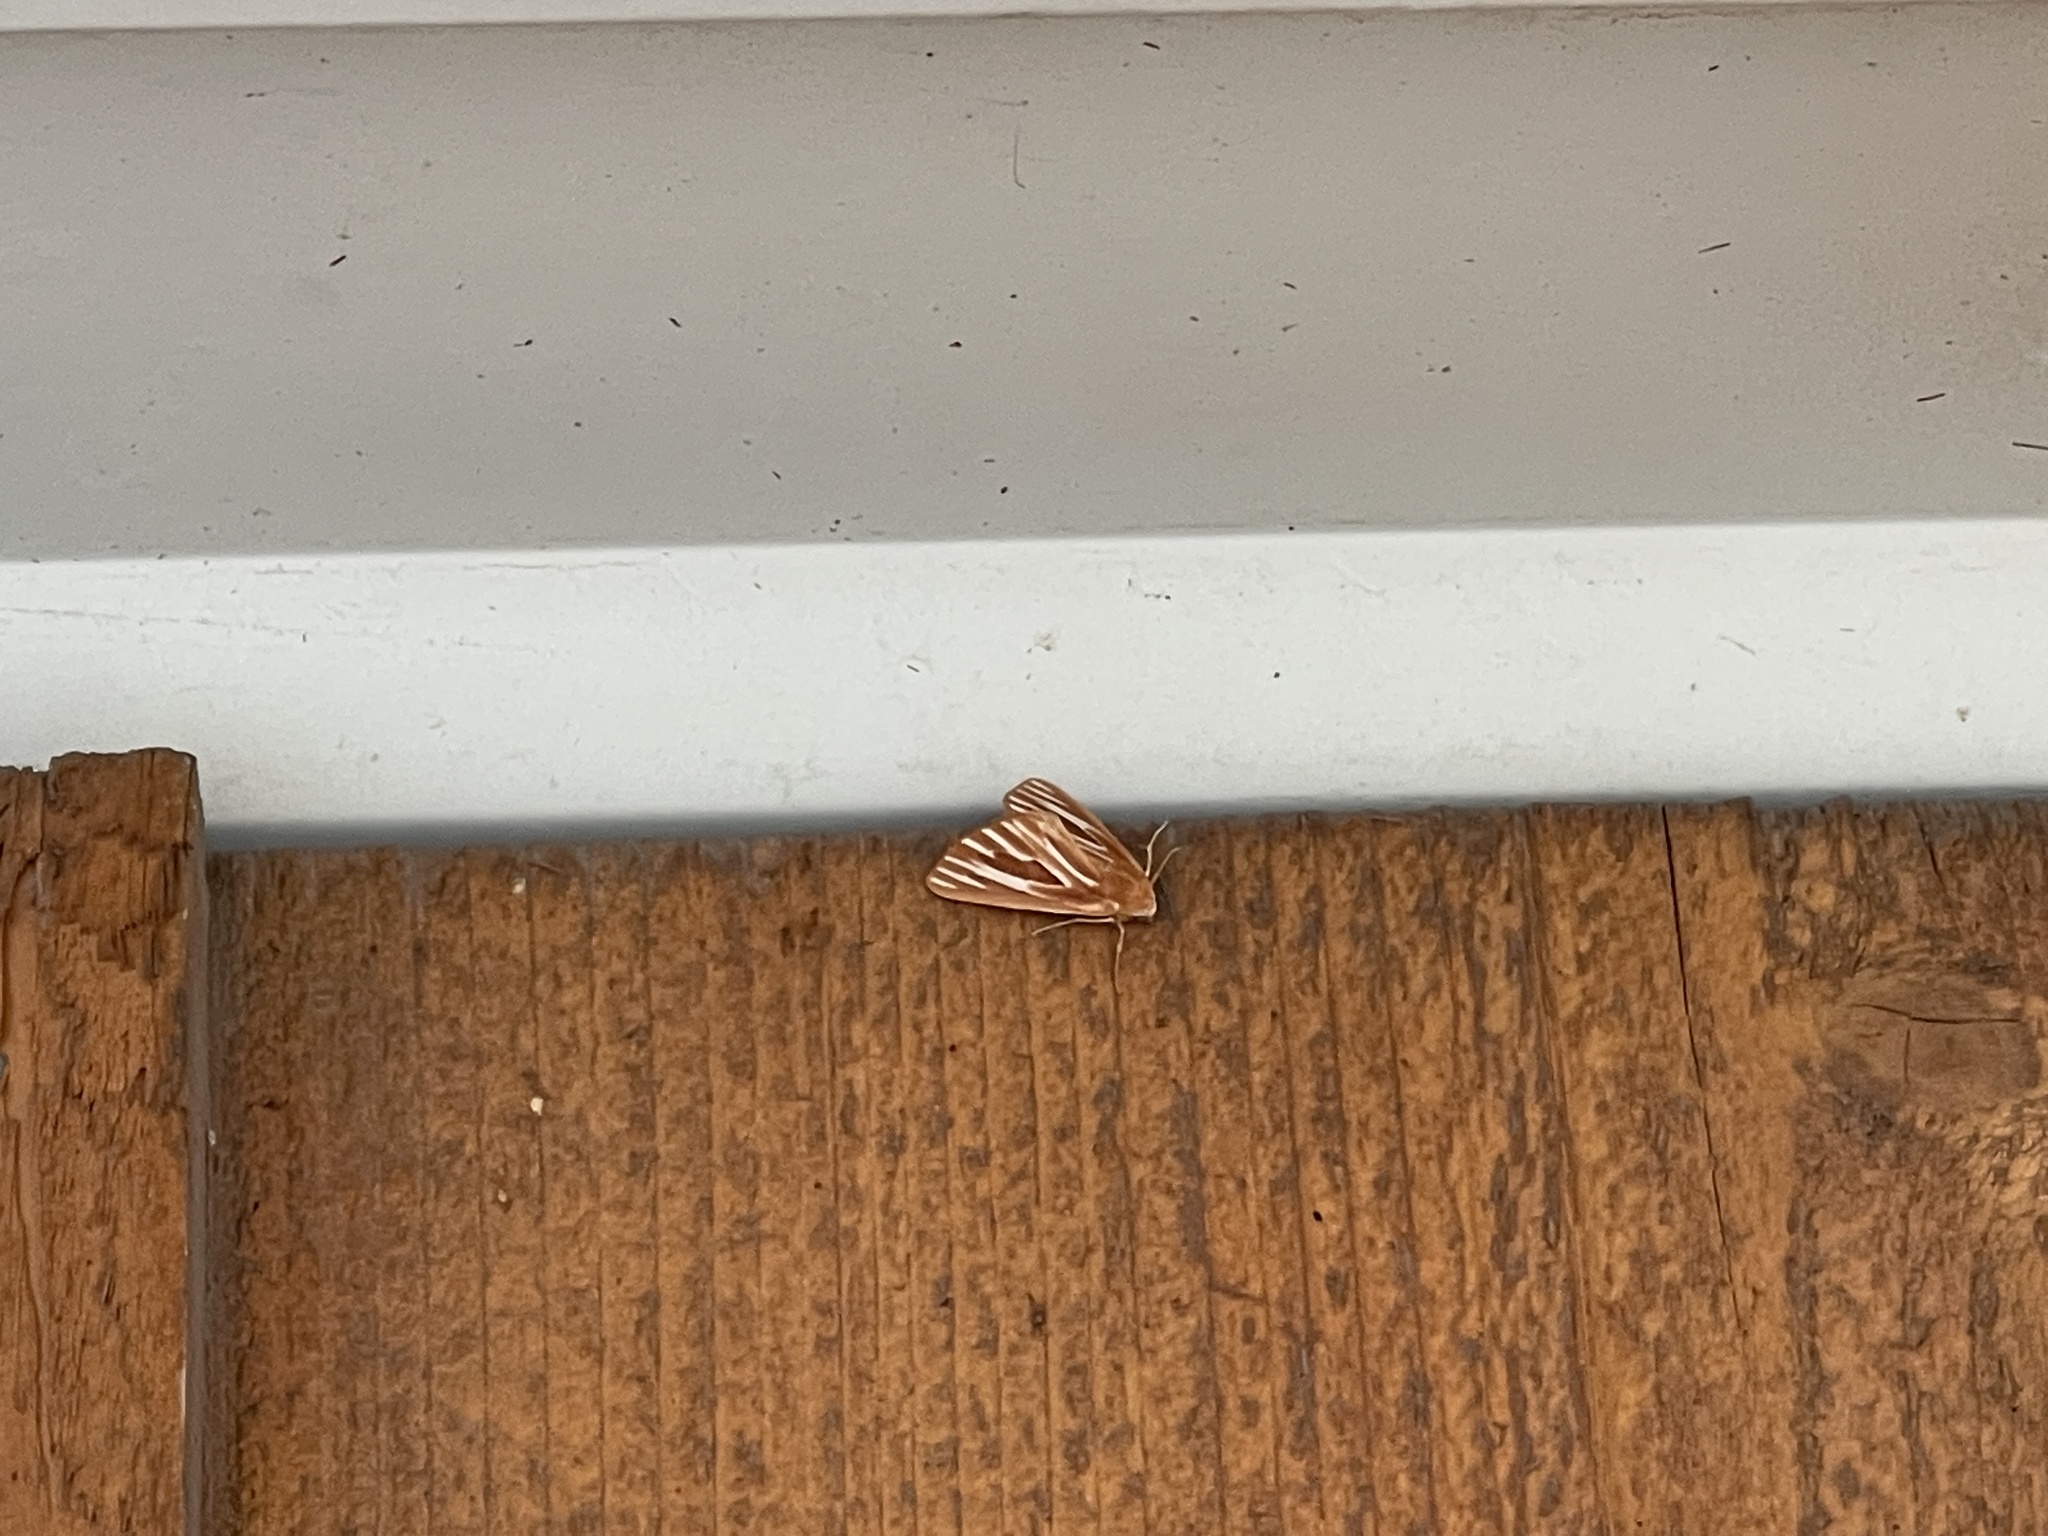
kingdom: Animalia
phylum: Arthropoda
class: Insecta
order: Lepidoptera
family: Geometridae
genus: Sabulodes
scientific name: Sabulodes niveostriata
